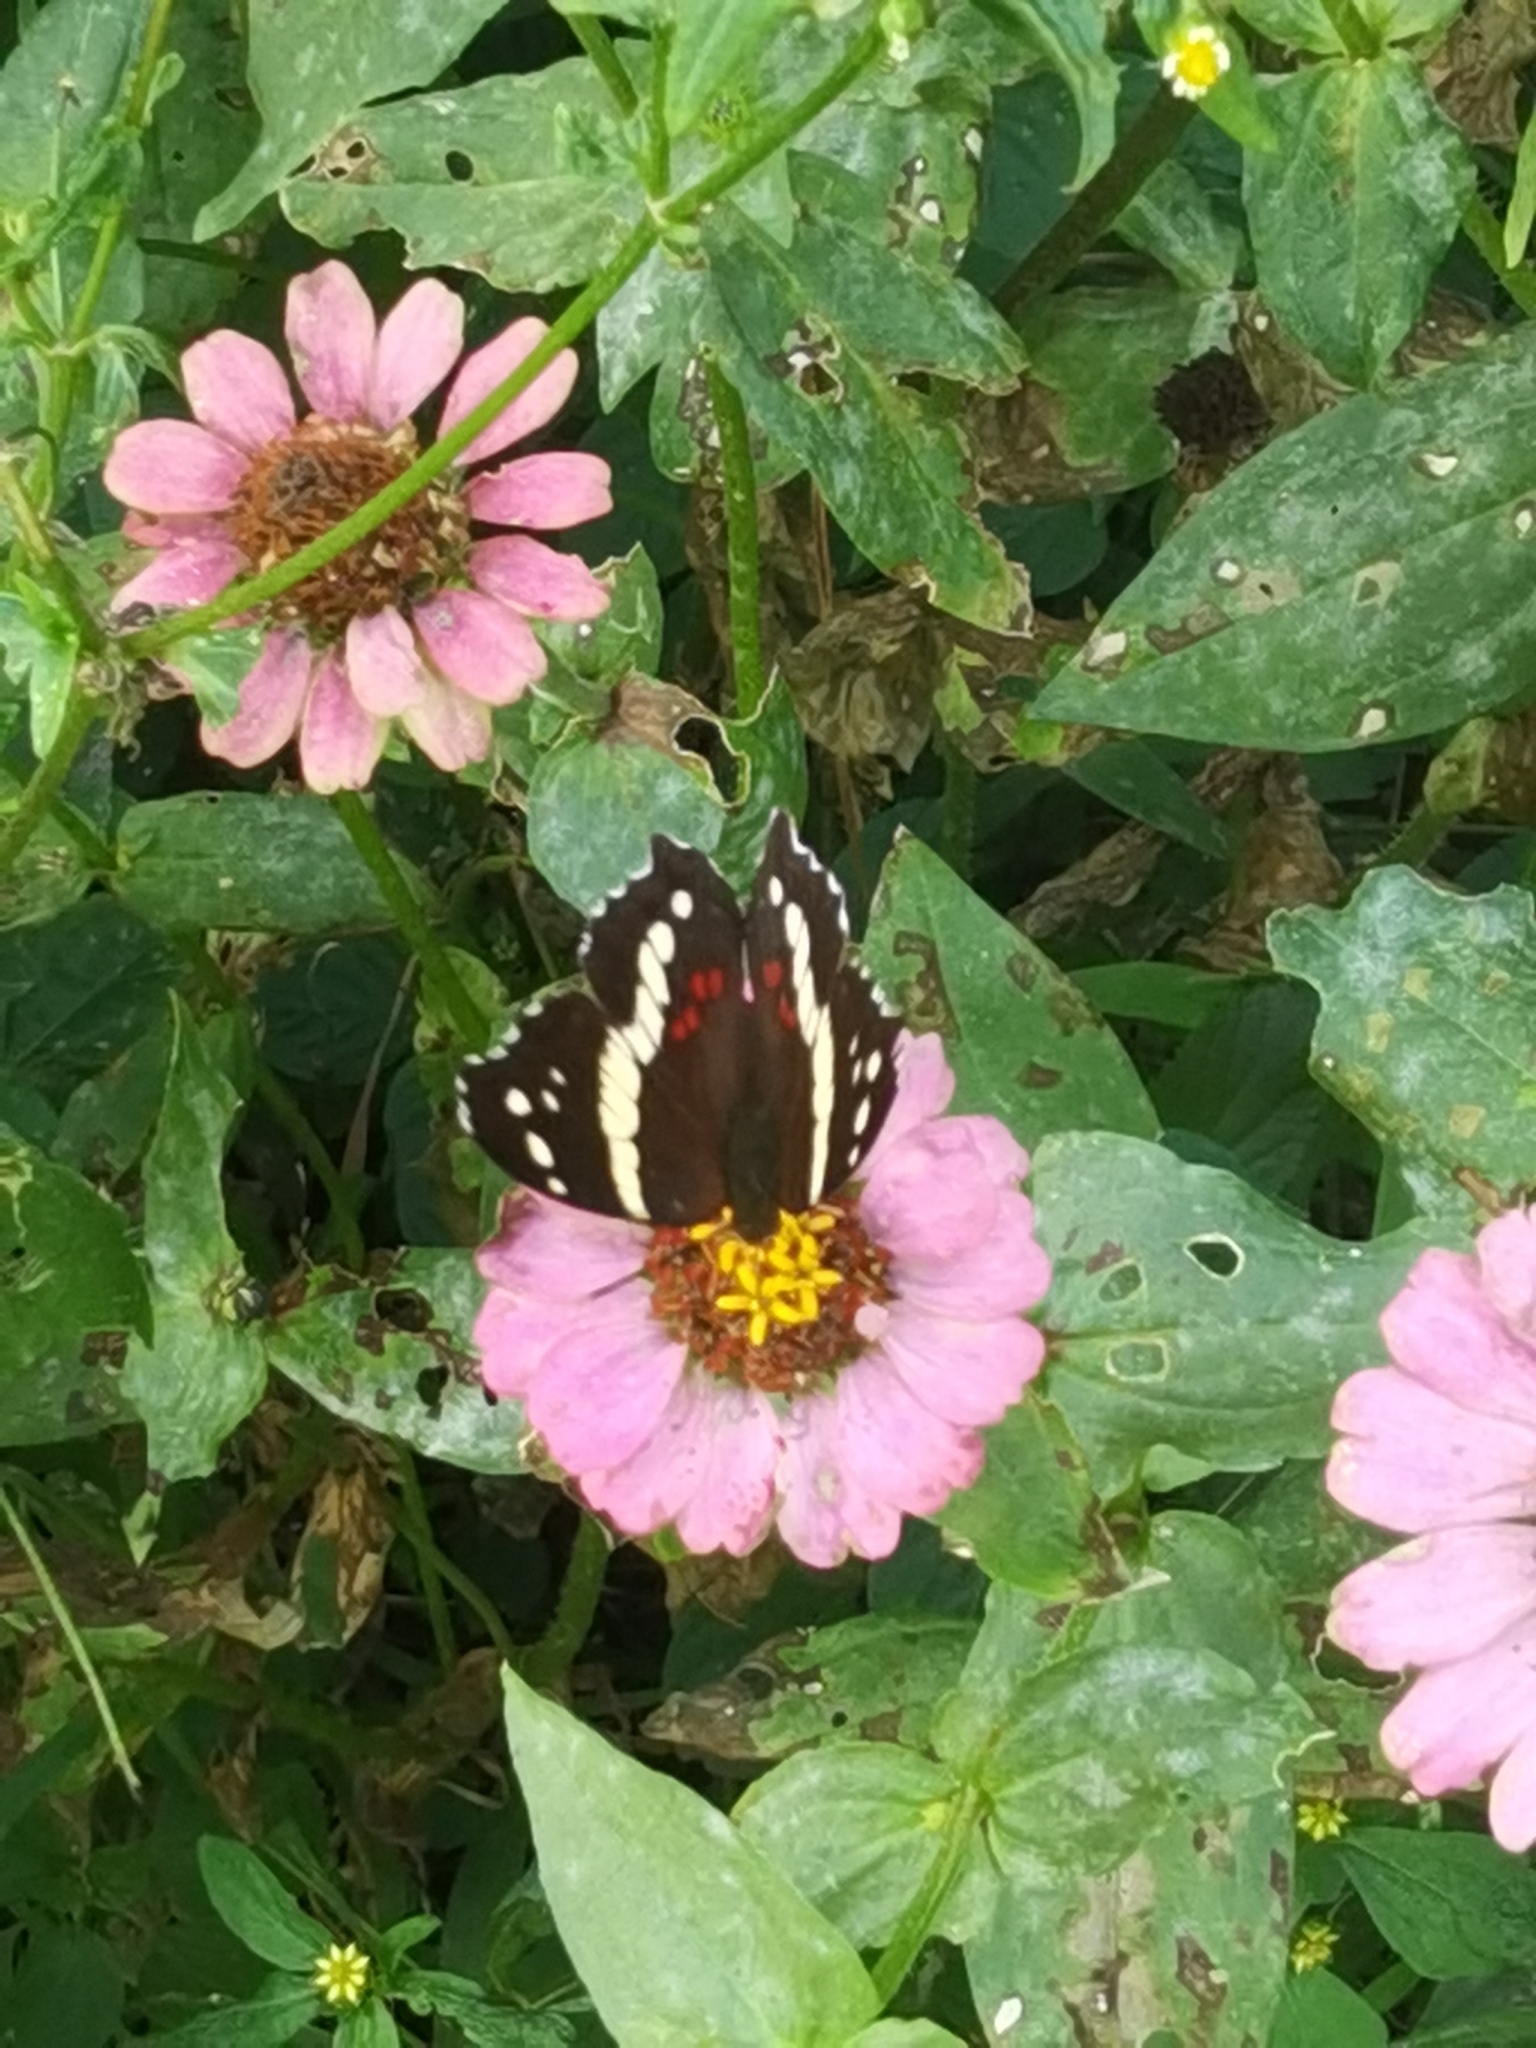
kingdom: Animalia
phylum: Arthropoda
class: Insecta
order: Lepidoptera
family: Nymphalidae
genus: Anartia
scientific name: Anartia fatima
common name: Banded peacock
